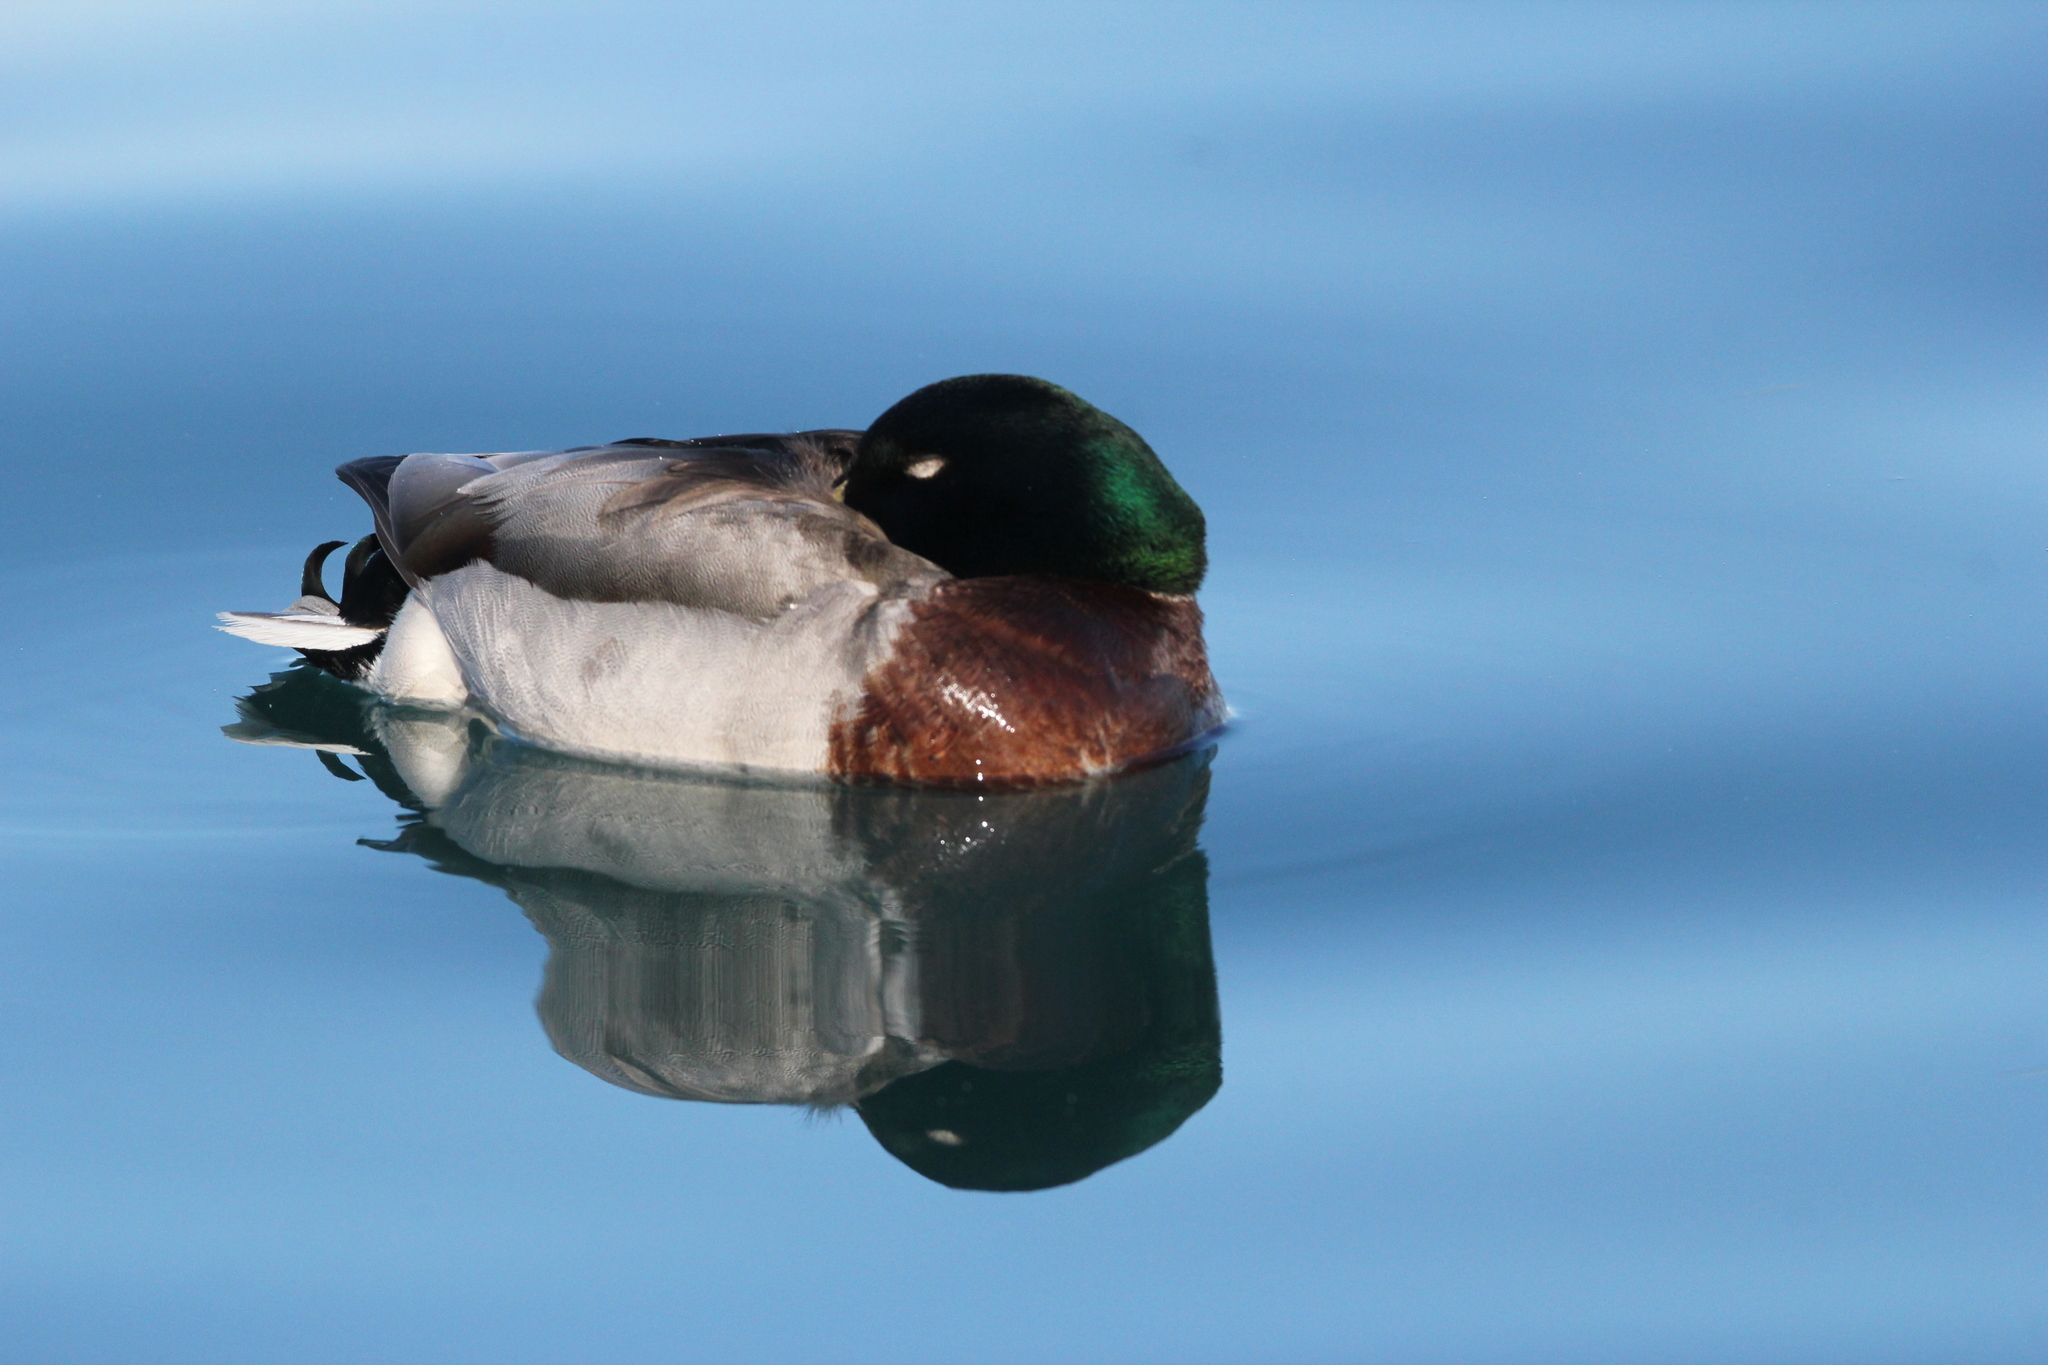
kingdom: Animalia
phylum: Chordata
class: Aves
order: Anseriformes
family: Anatidae
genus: Anas
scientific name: Anas platyrhynchos
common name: Mallard
